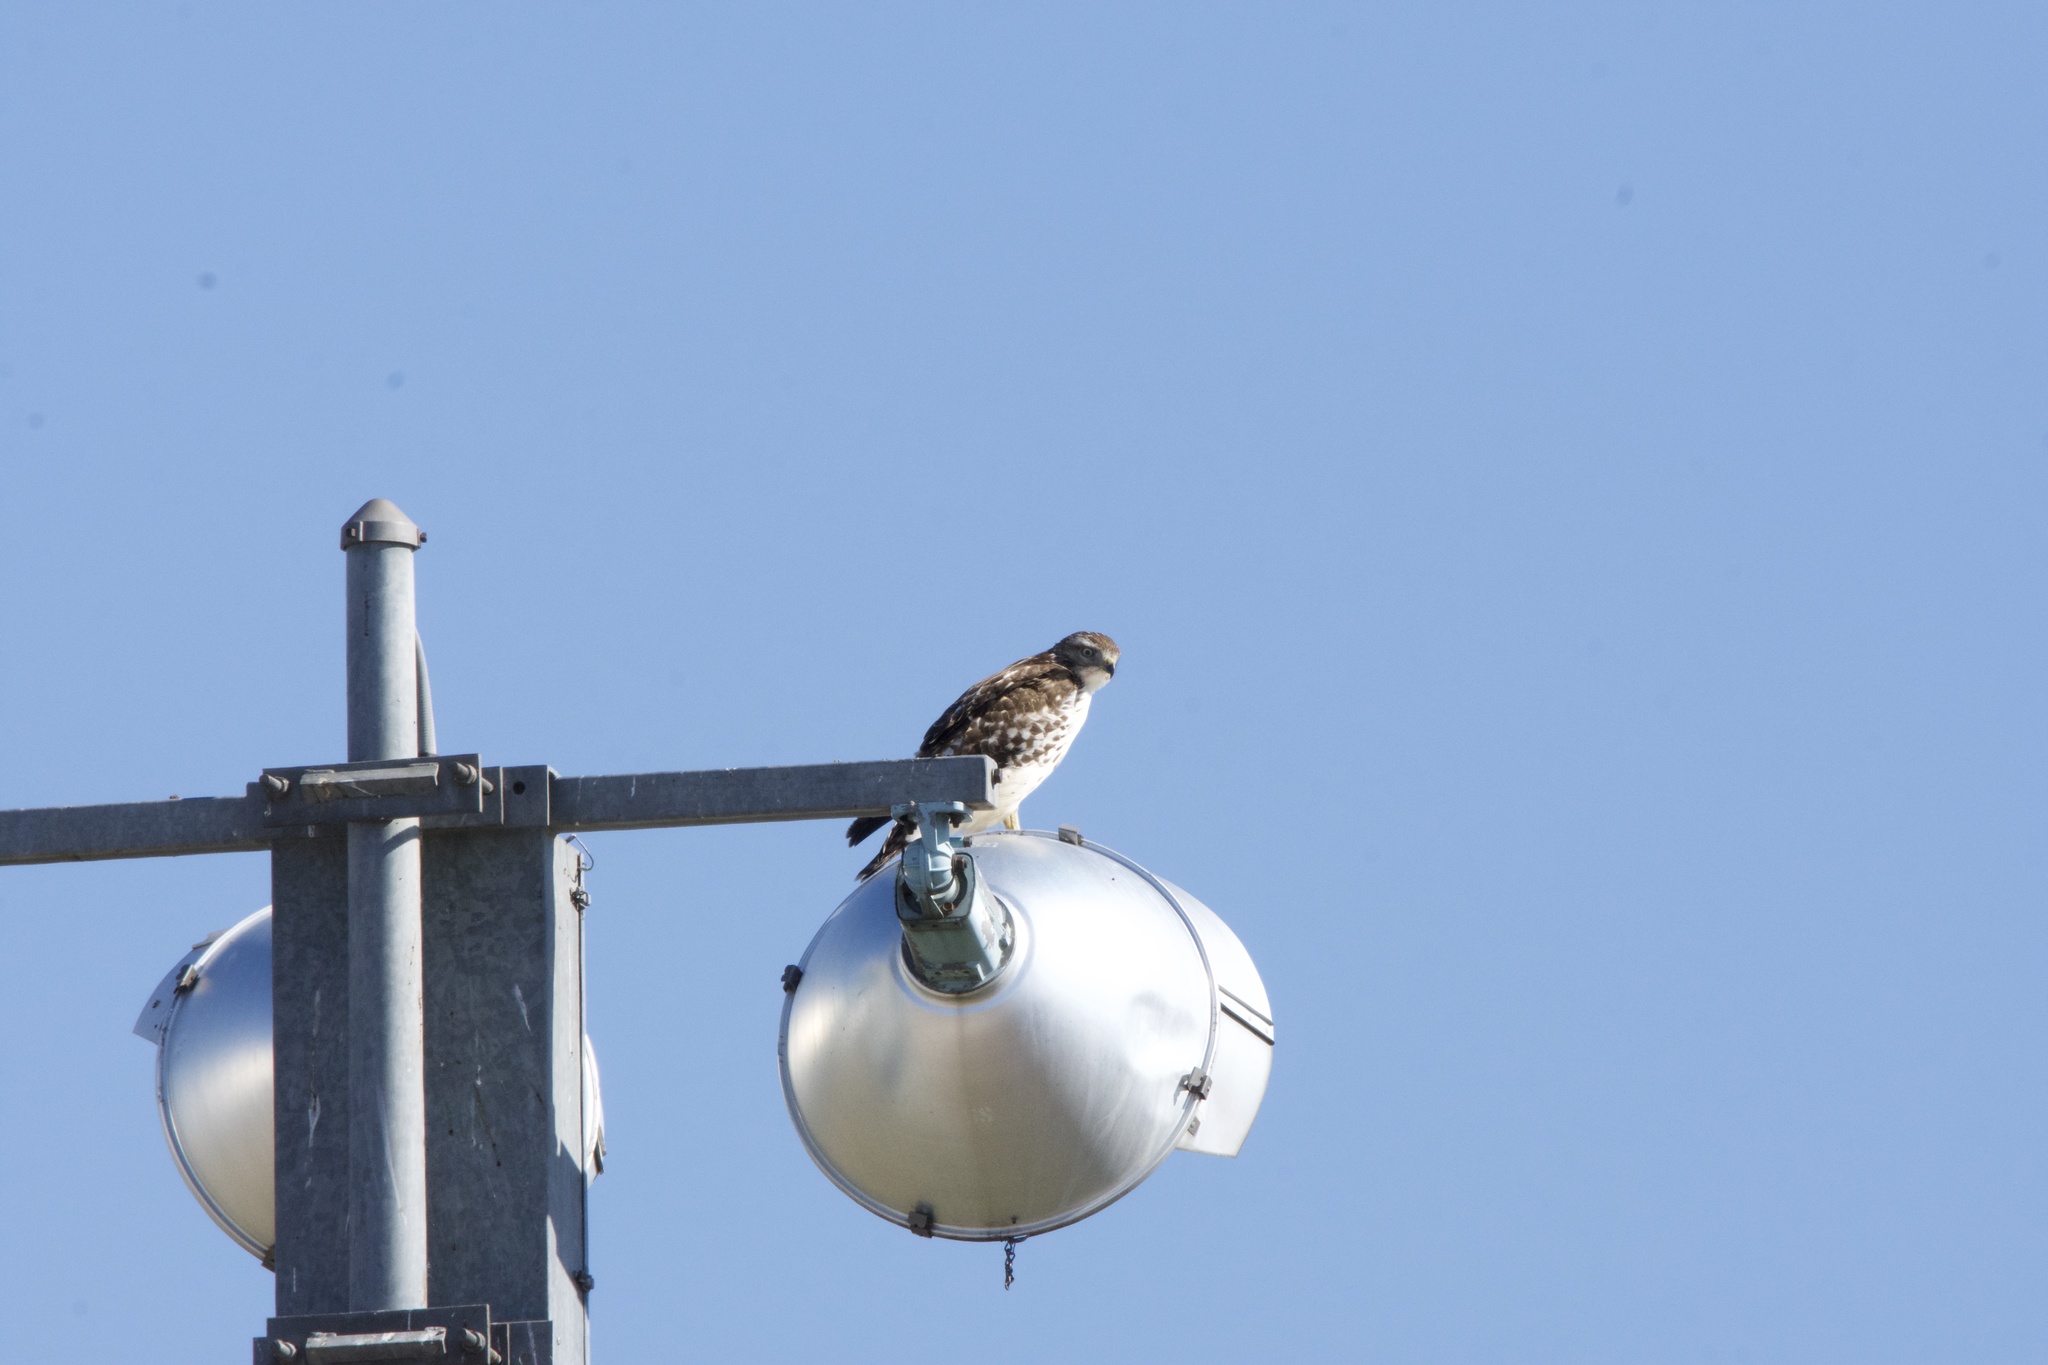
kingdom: Animalia
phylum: Chordata
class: Aves
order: Accipitriformes
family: Accipitridae
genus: Buteo
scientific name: Buteo jamaicensis
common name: Red-tailed hawk
